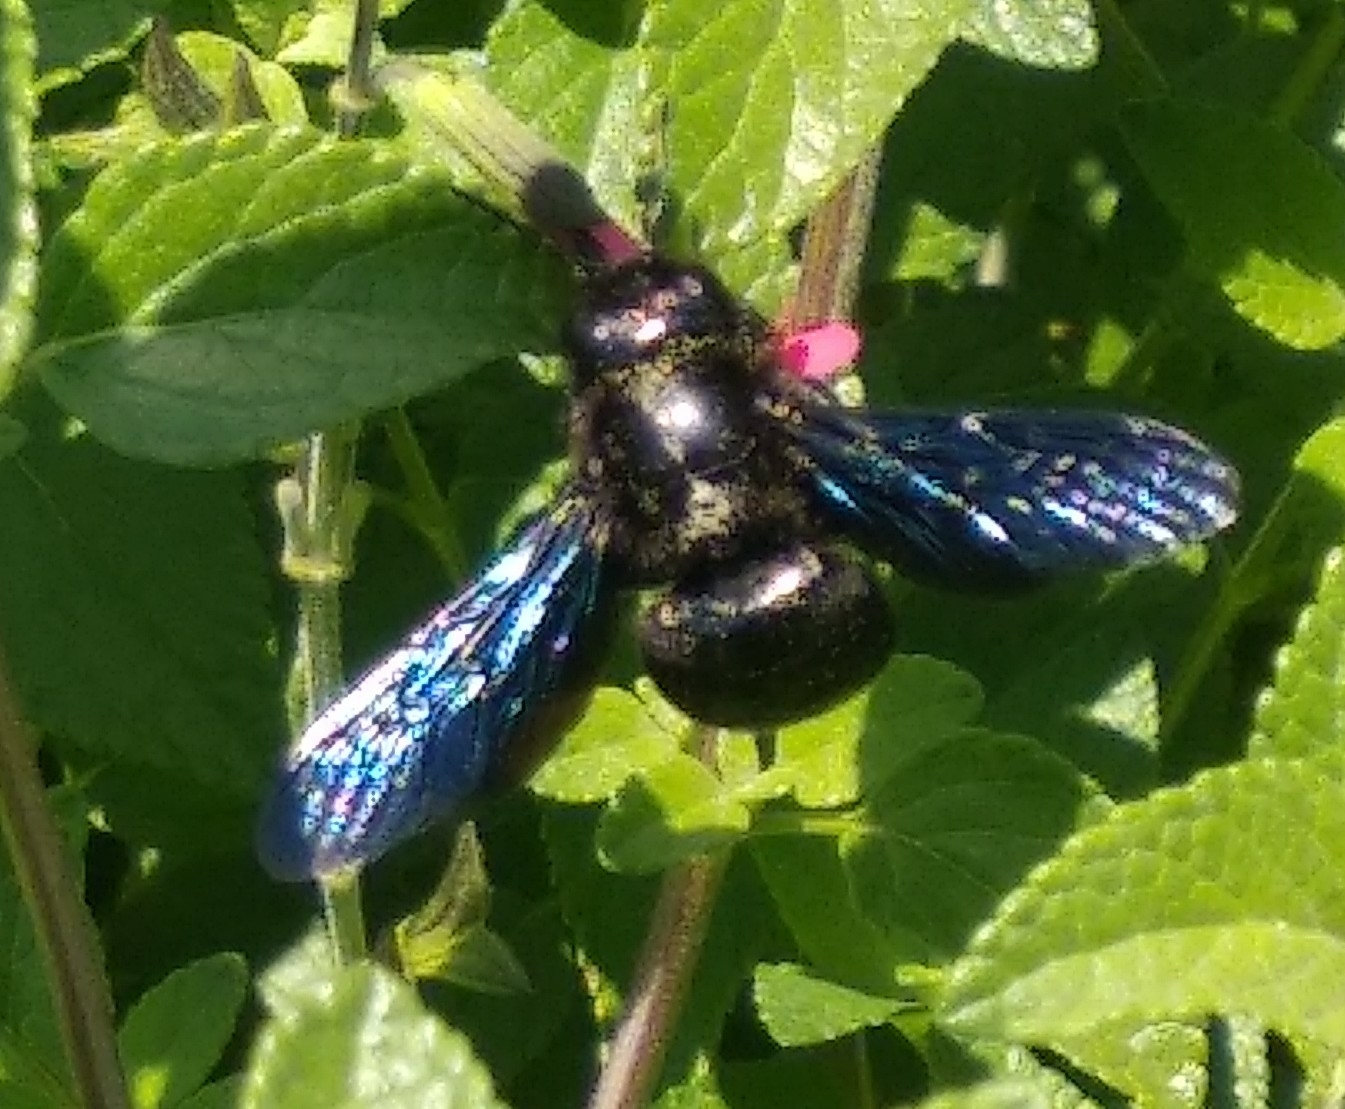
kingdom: Animalia
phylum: Arthropoda
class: Insecta
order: Hymenoptera
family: Apidae
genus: Xylocopa
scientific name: Xylocopa violacea
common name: Violet carpenter bee
